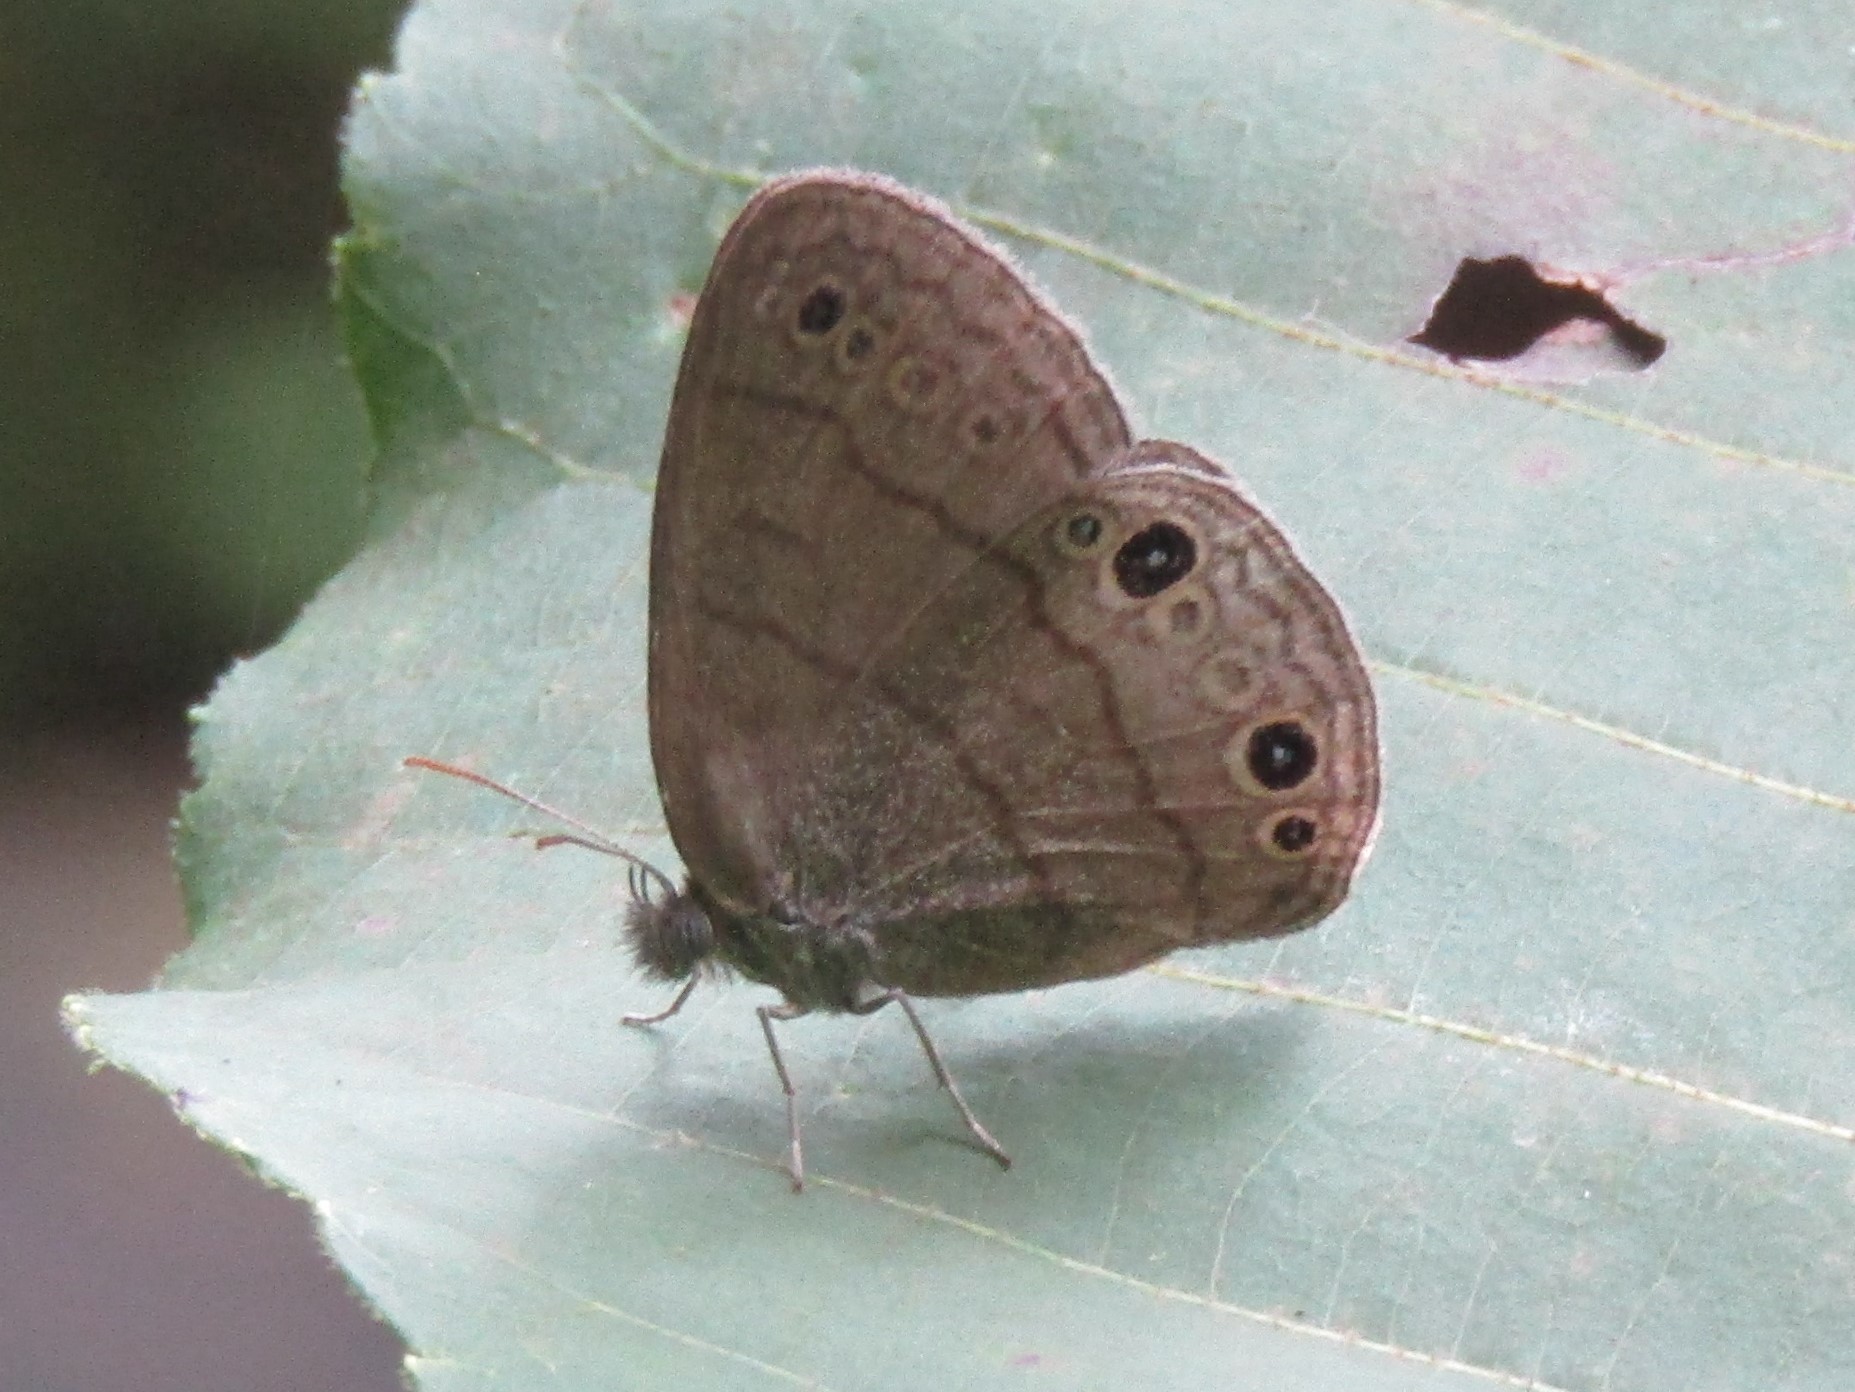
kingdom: Animalia
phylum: Arthropoda
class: Insecta
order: Lepidoptera
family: Nymphalidae
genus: Hermeuptychia
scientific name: Hermeuptychia hermes
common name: Hermes satyr
